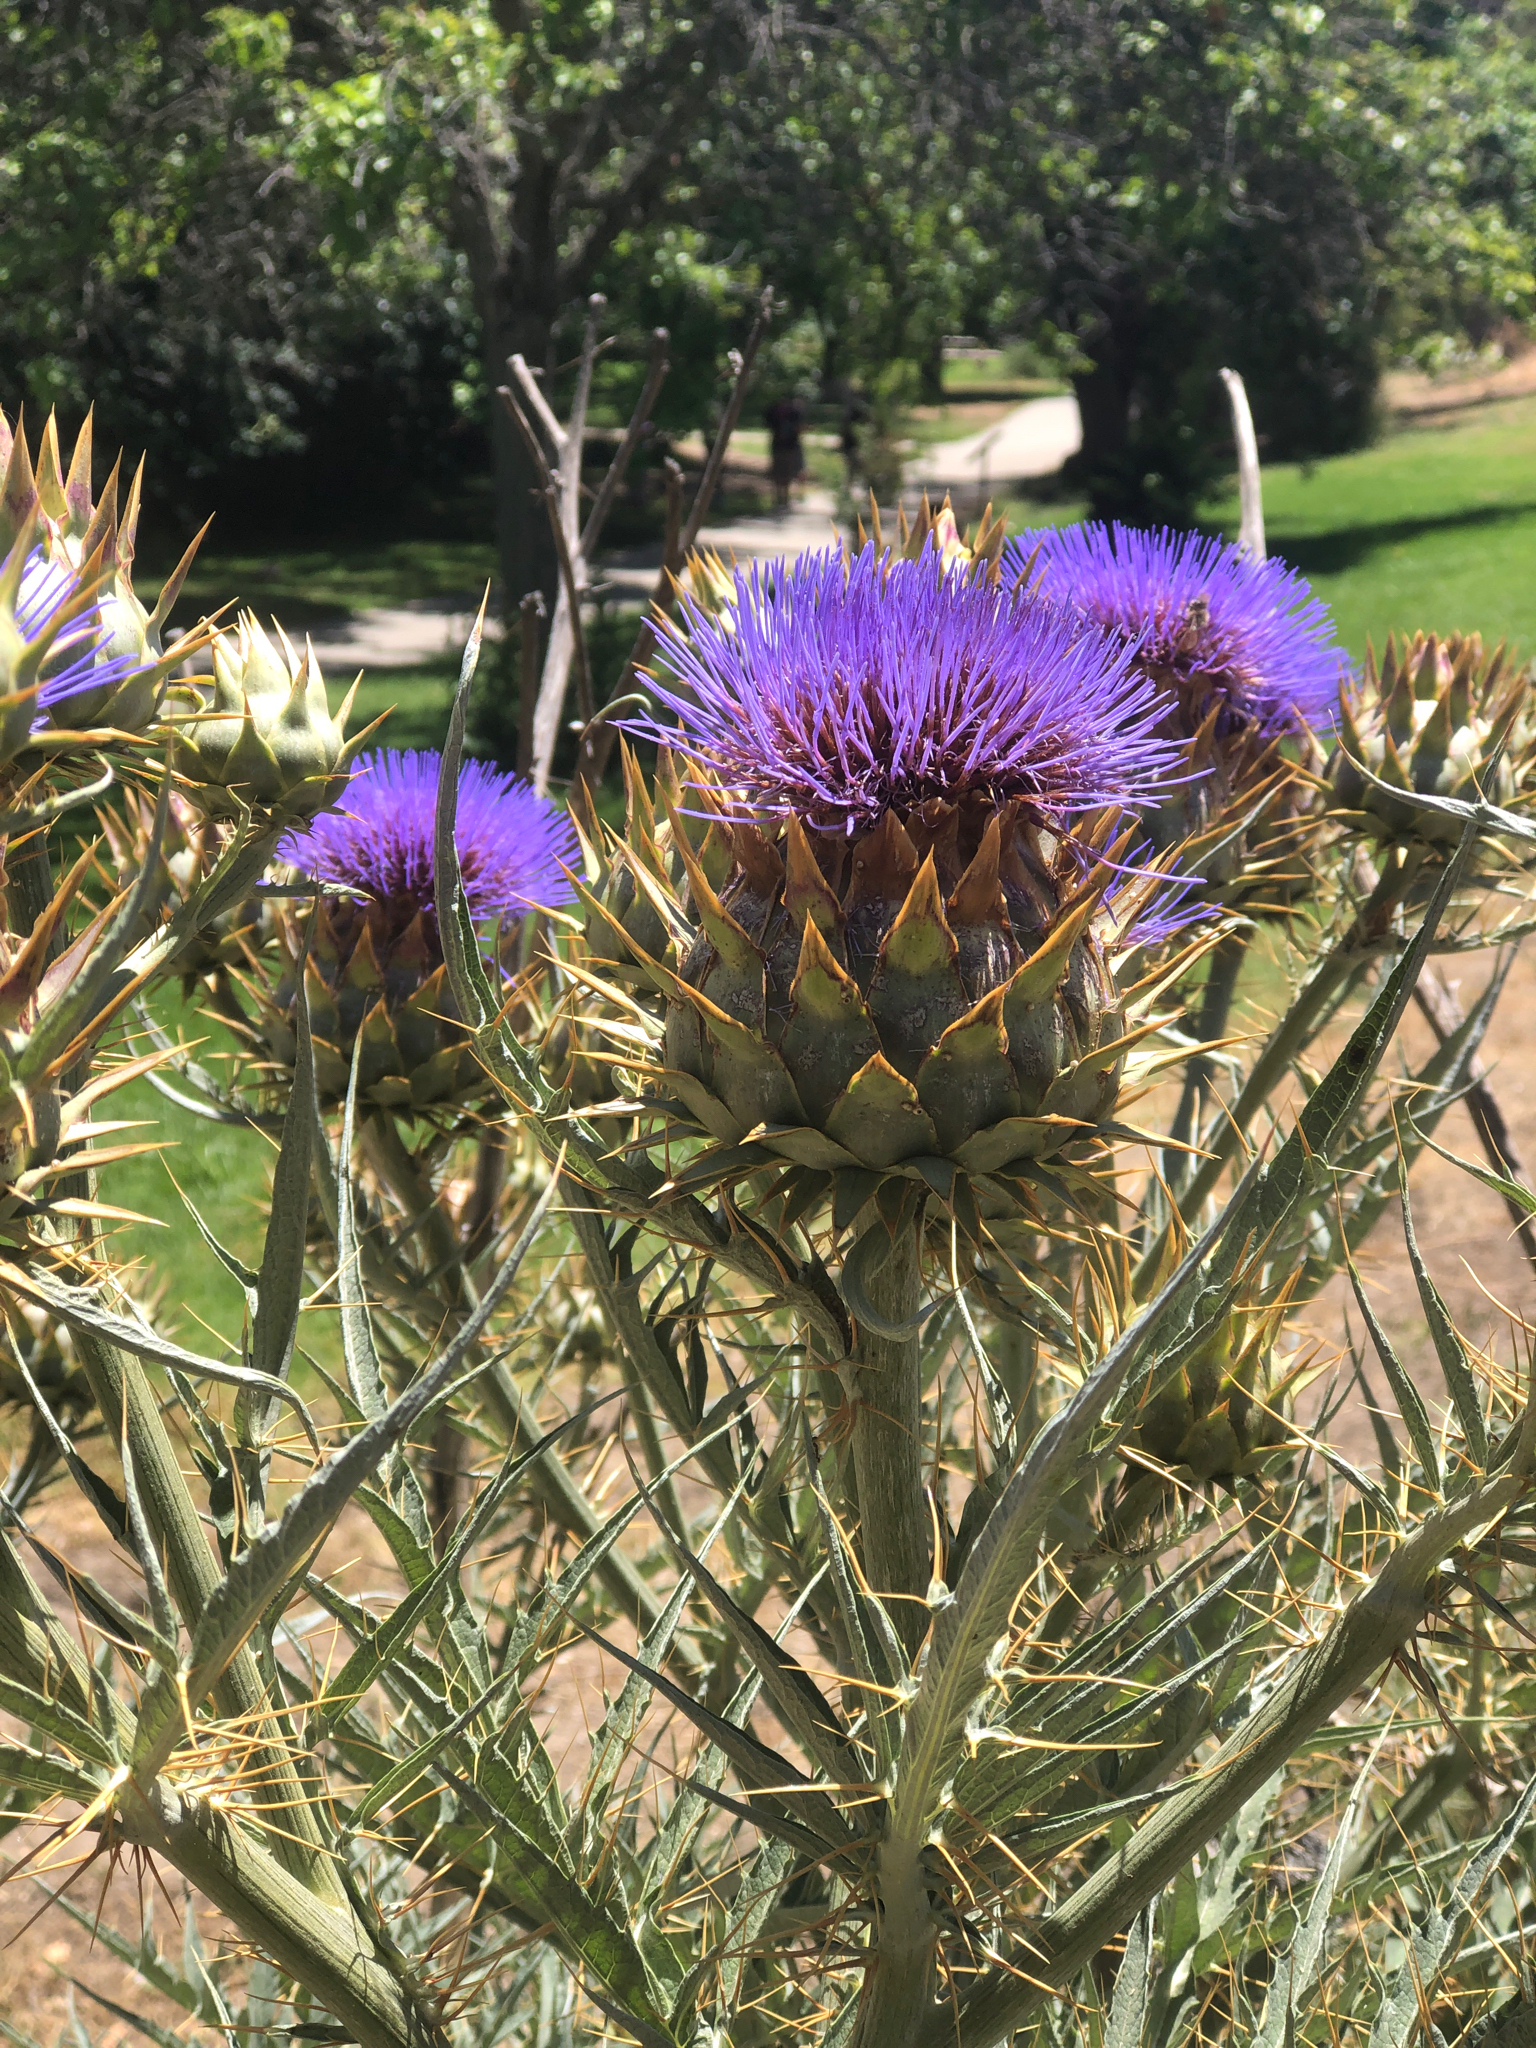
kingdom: Plantae
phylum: Tracheophyta
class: Magnoliopsida
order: Asterales
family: Asteraceae
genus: Cynara
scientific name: Cynara cardunculus
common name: Globe artichoke
